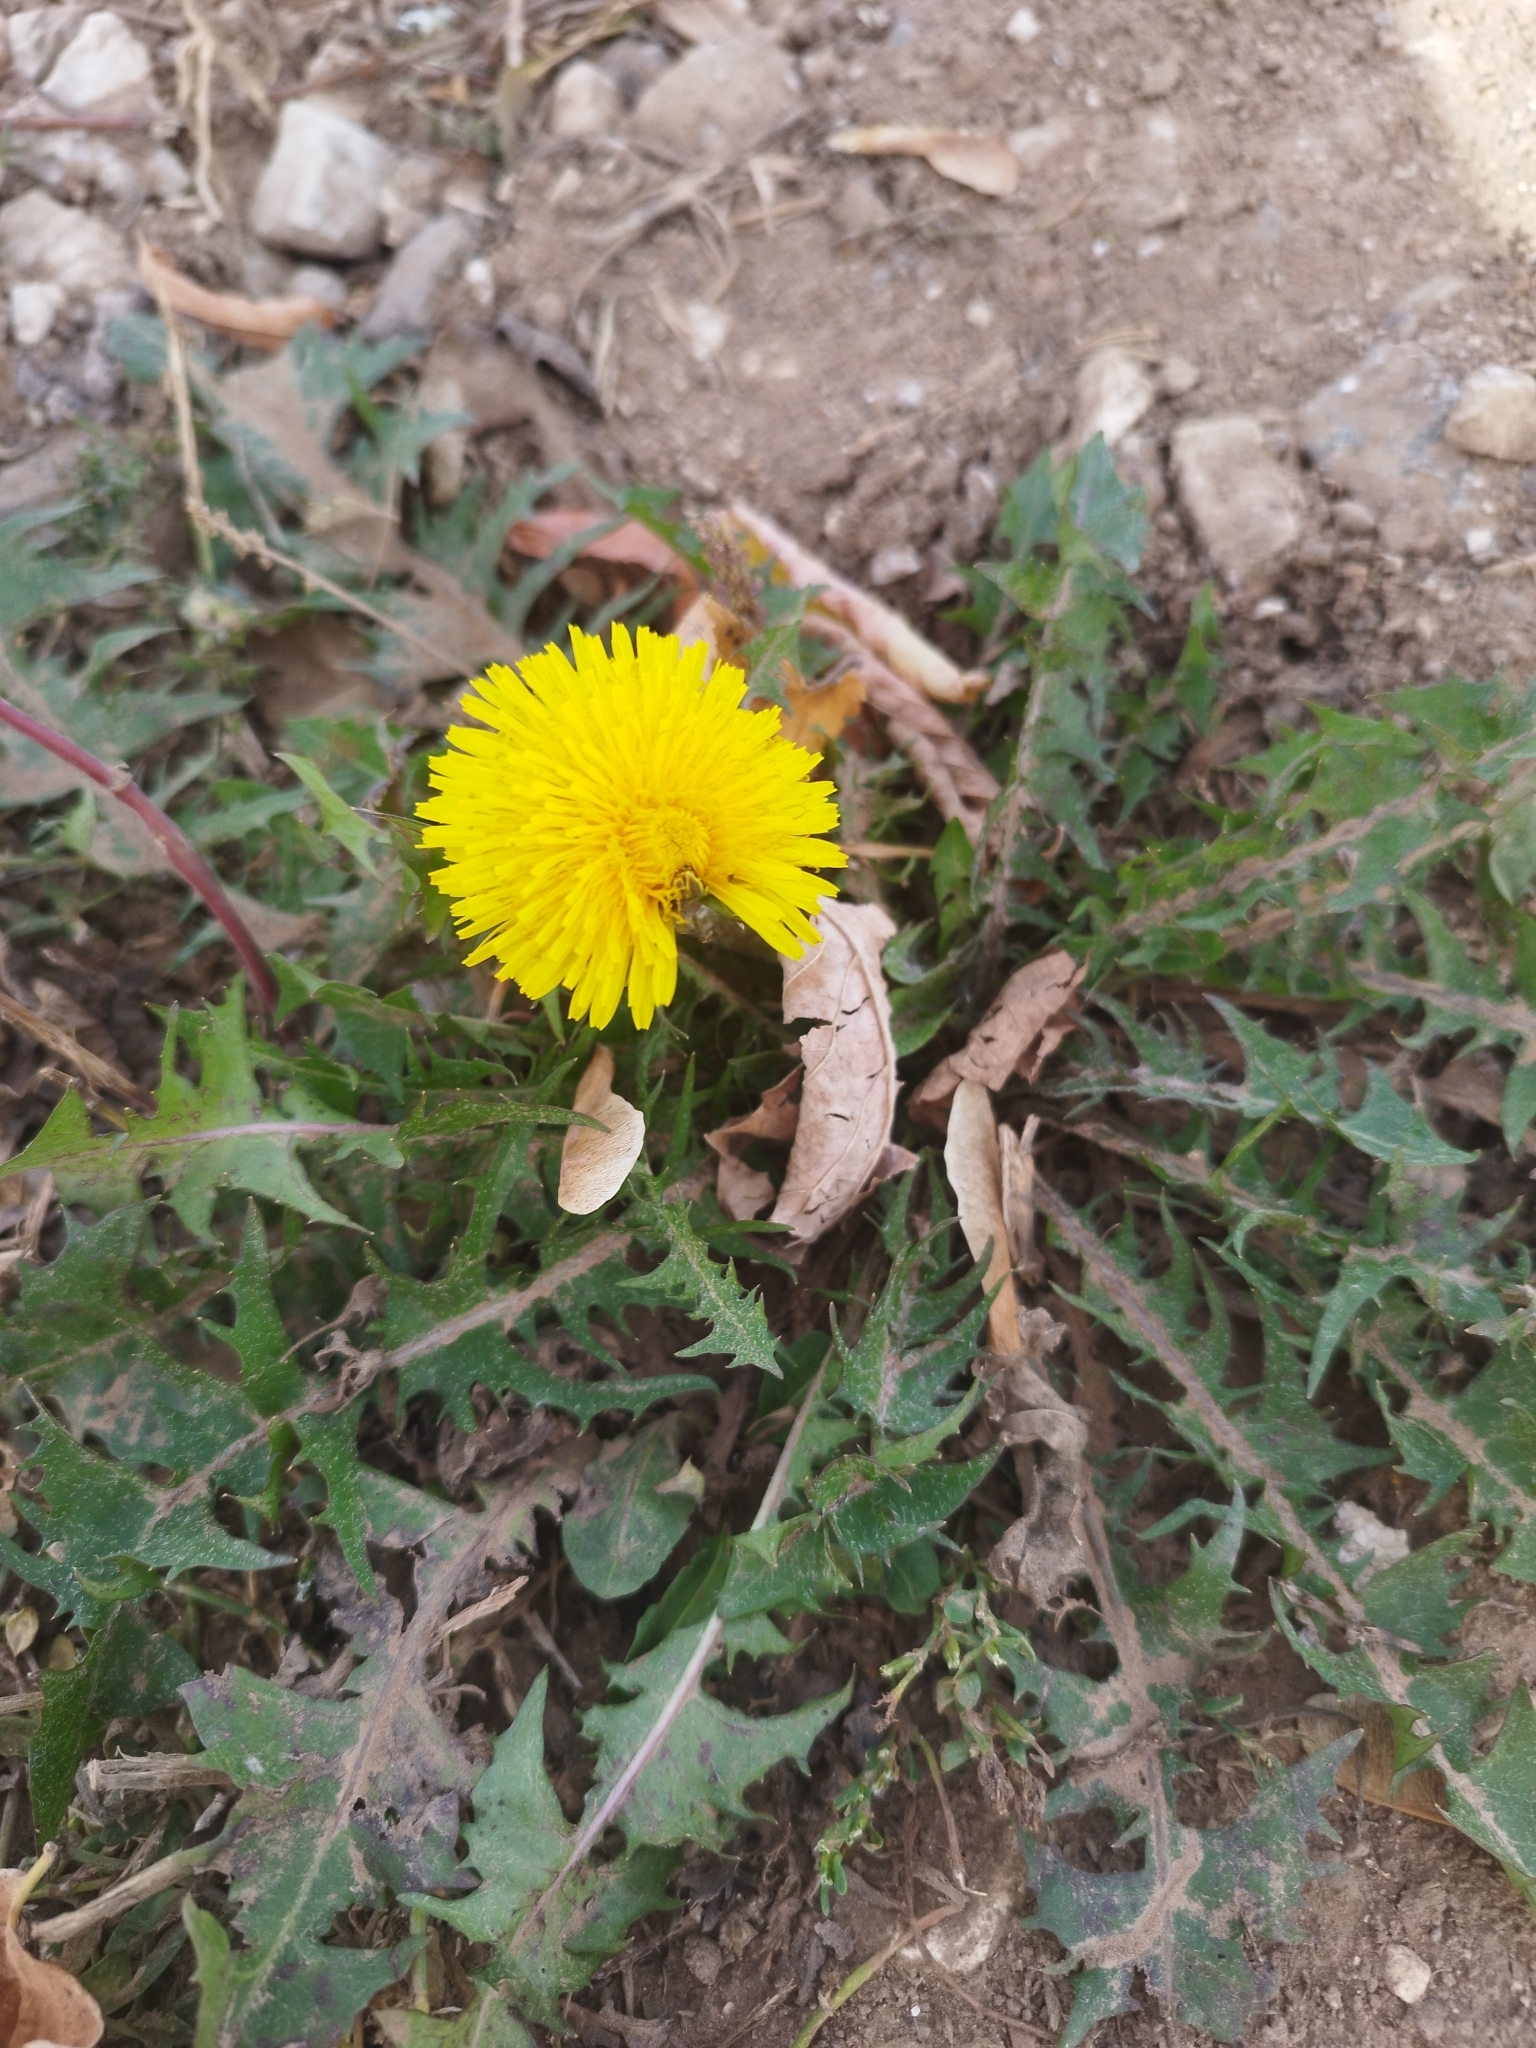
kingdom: Plantae
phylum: Tracheophyta
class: Magnoliopsida
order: Asterales
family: Asteraceae
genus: Taraxacum
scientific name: Taraxacum officinale
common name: Common dandelion
